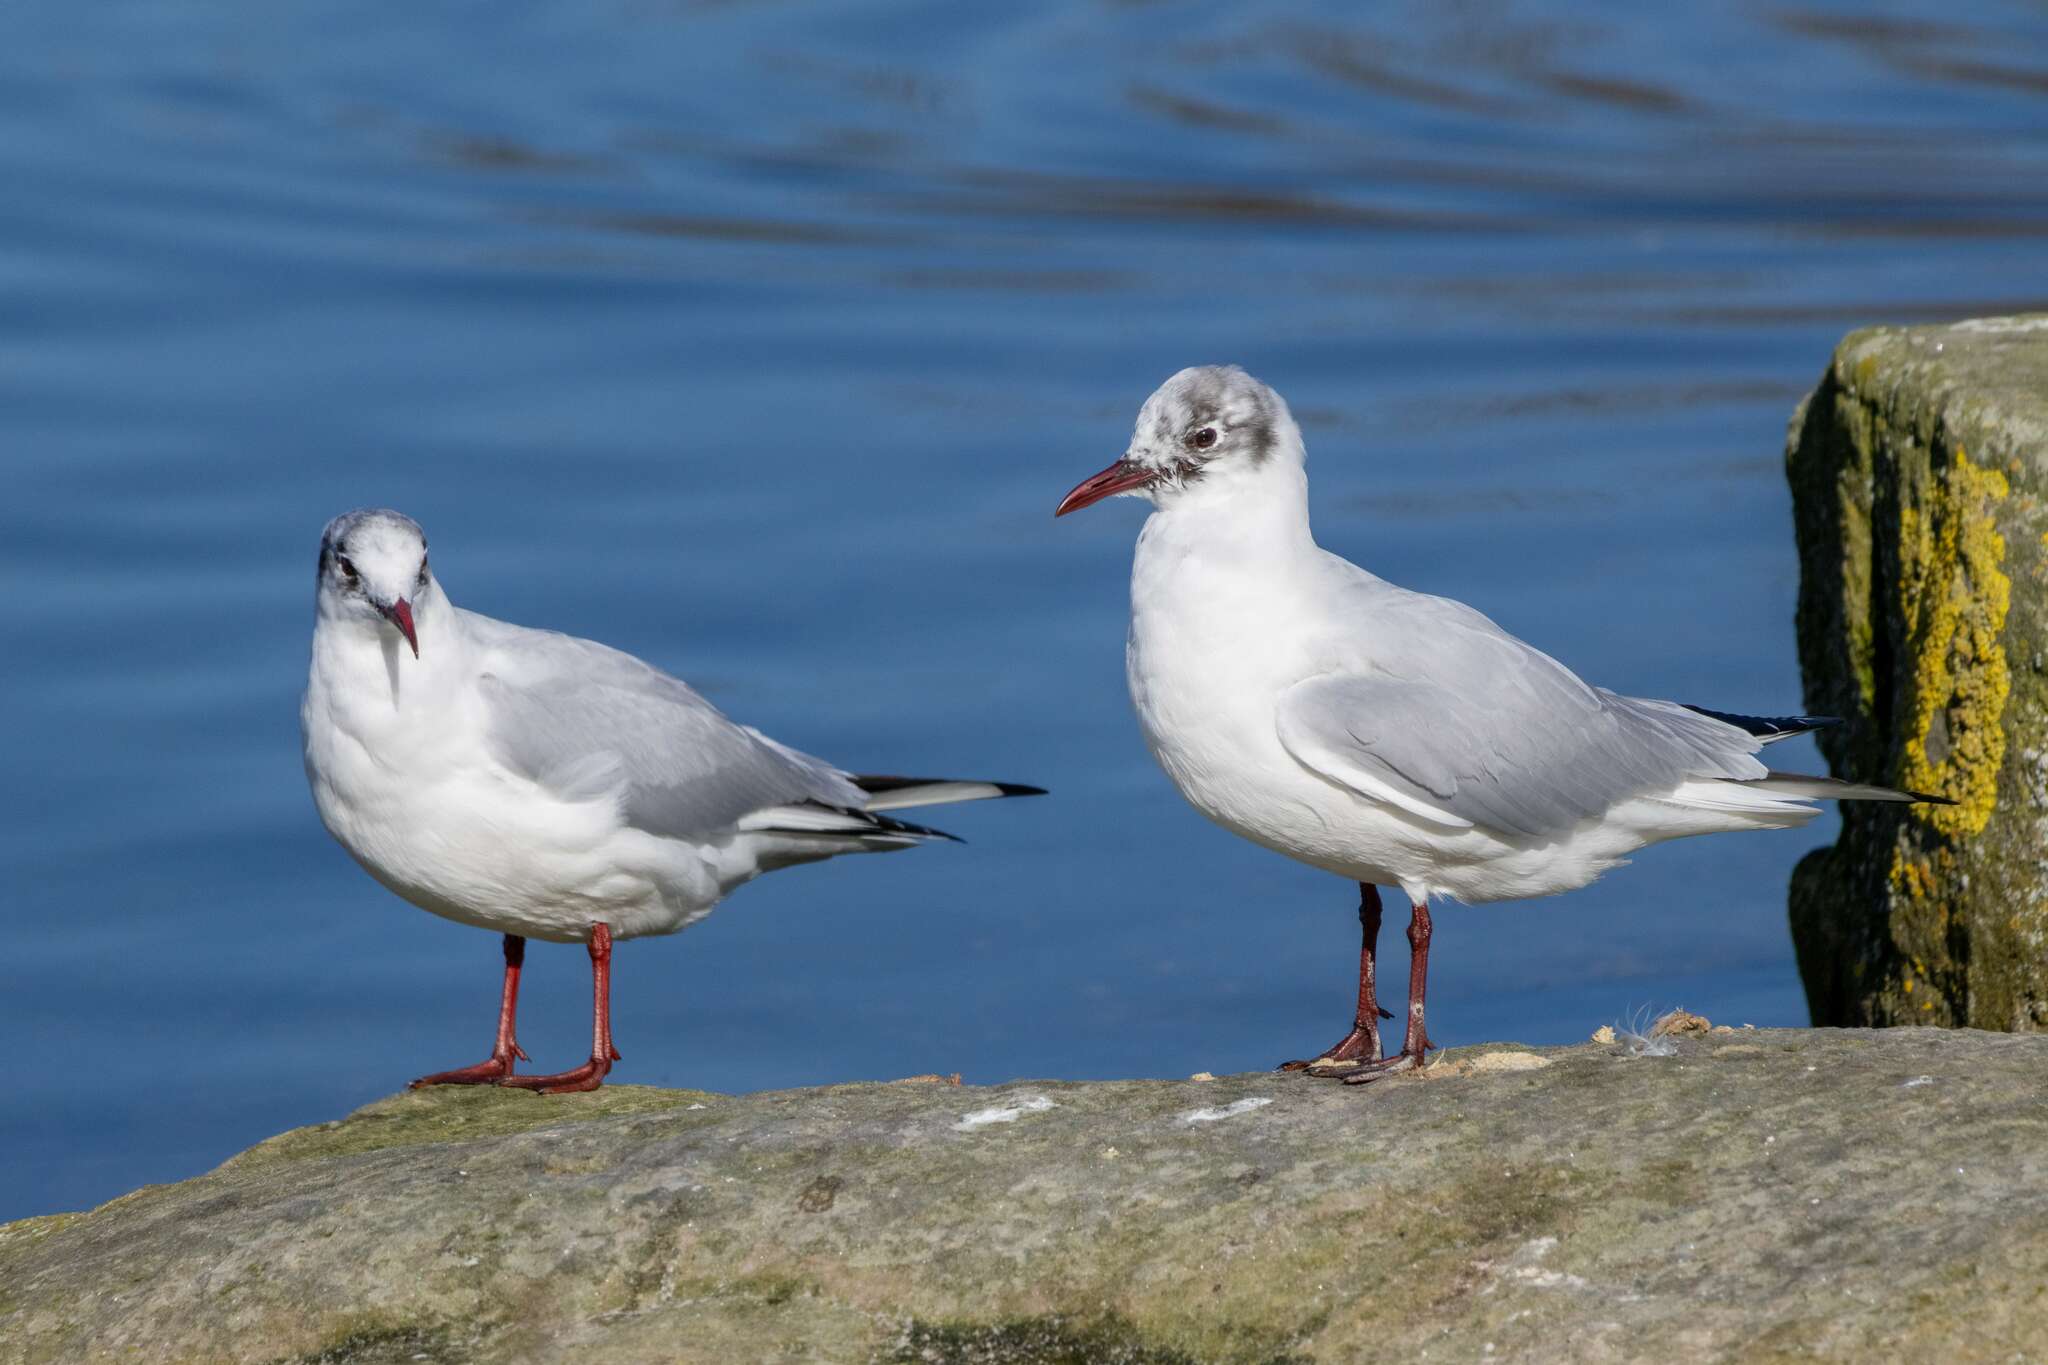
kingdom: Animalia
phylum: Chordata
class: Aves
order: Charadriiformes
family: Laridae
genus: Chroicocephalus
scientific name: Chroicocephalus ridibundus
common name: Black-headed gull
